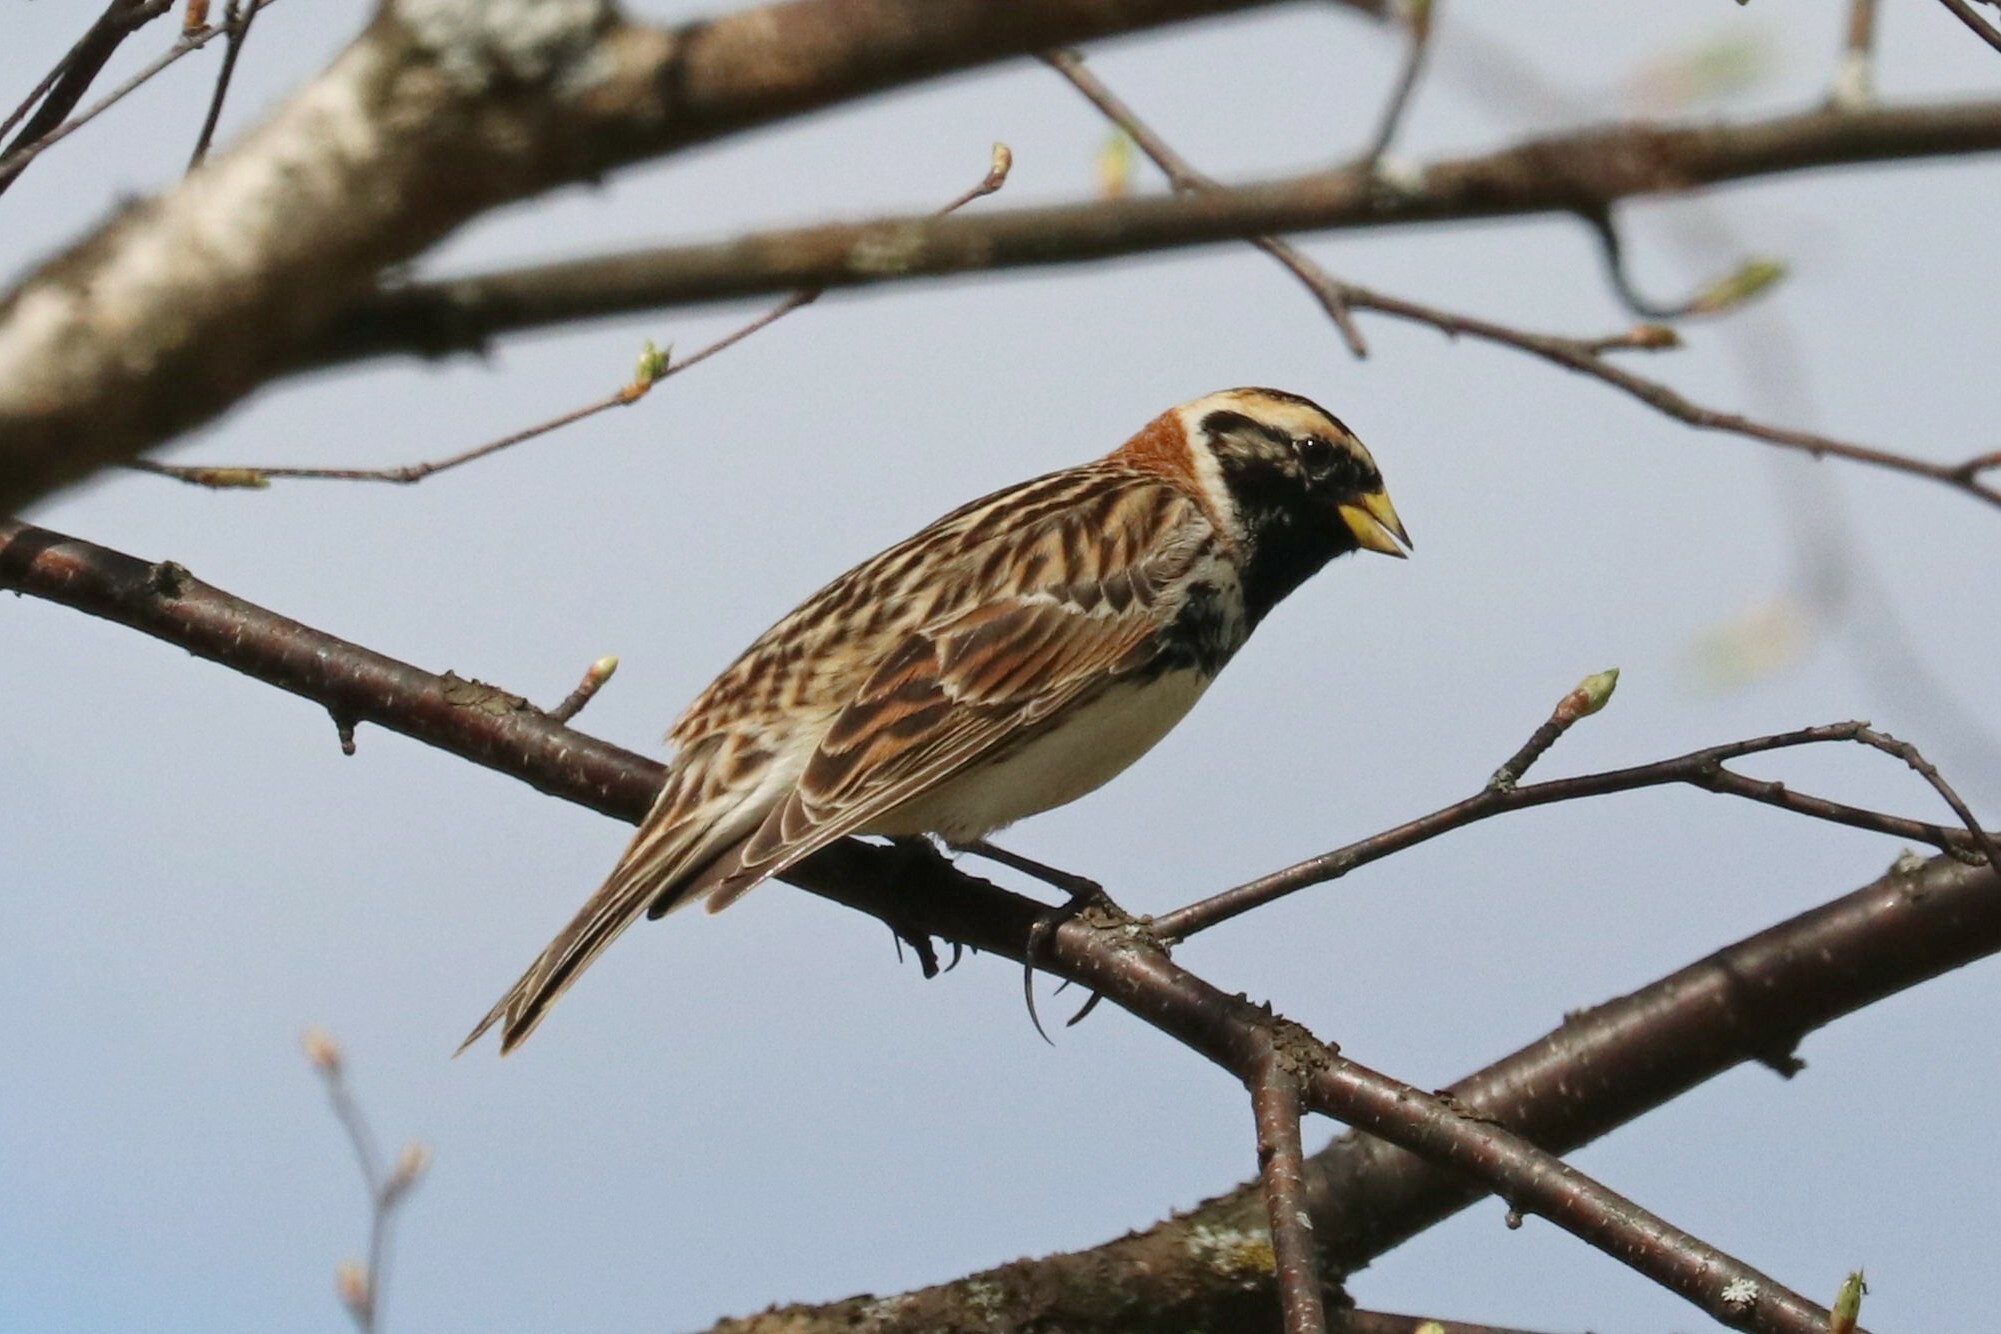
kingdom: Animalia
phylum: Chordata
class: Aves
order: Passeriformes
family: Calcariidae
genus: Calcarius
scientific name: Calcarius lapponicus
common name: Lapland longspur
